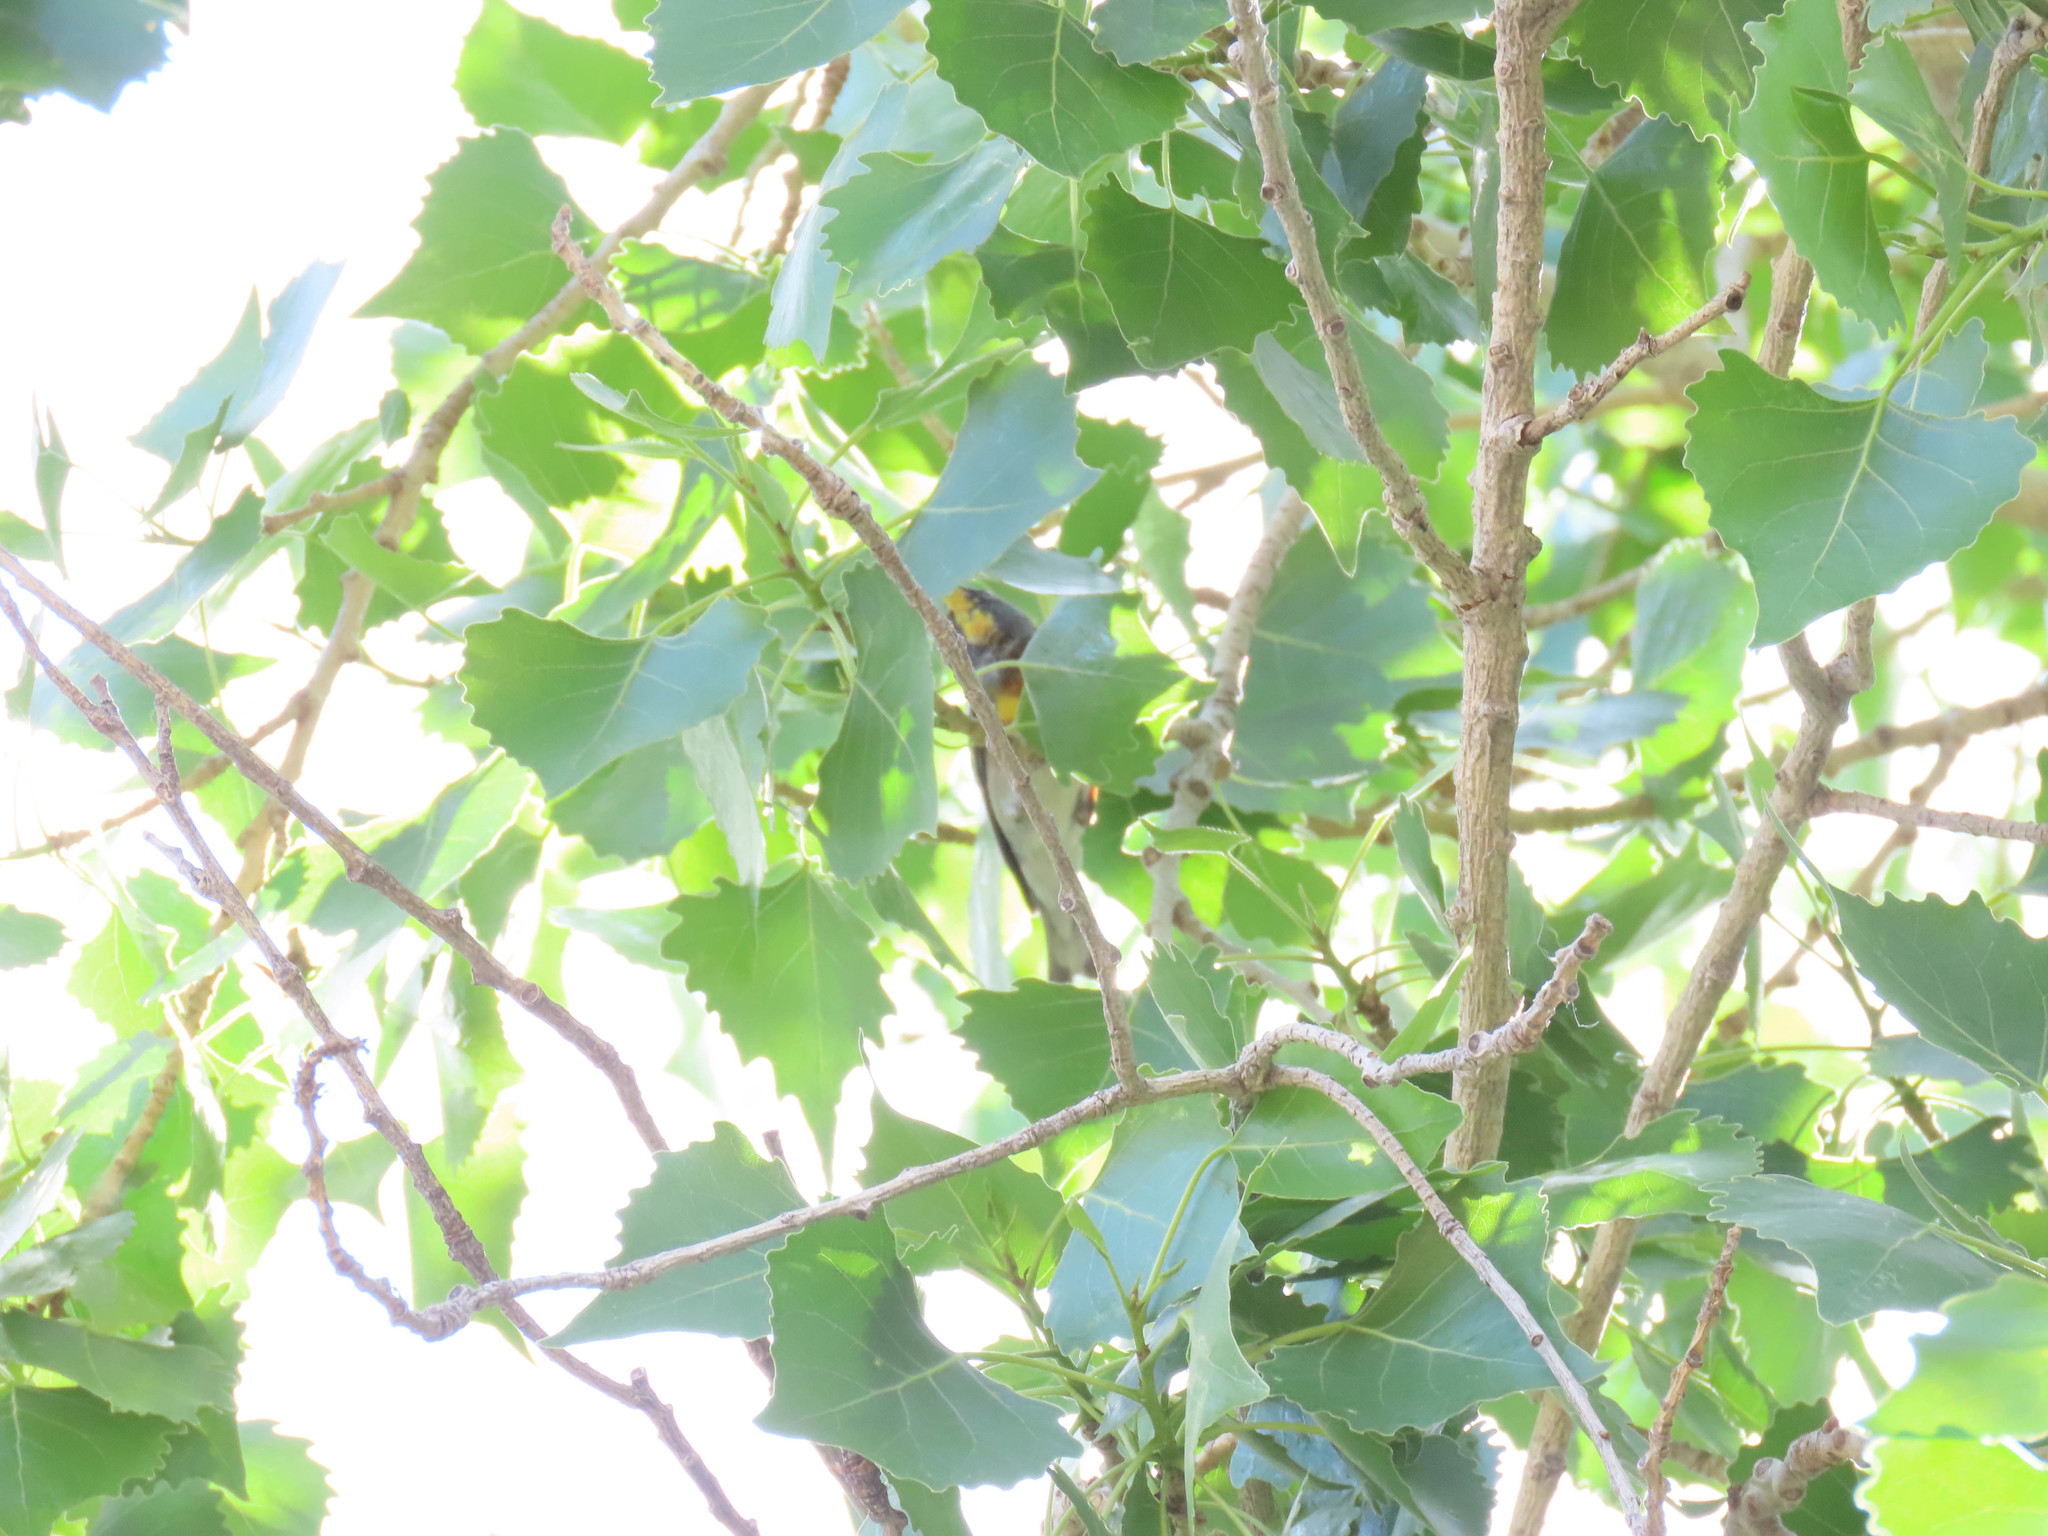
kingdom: Animalia
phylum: Chordata
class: Aves
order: Passeriformes
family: Parulidae
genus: Setophaga
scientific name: Setophaga americana
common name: Northern parula
